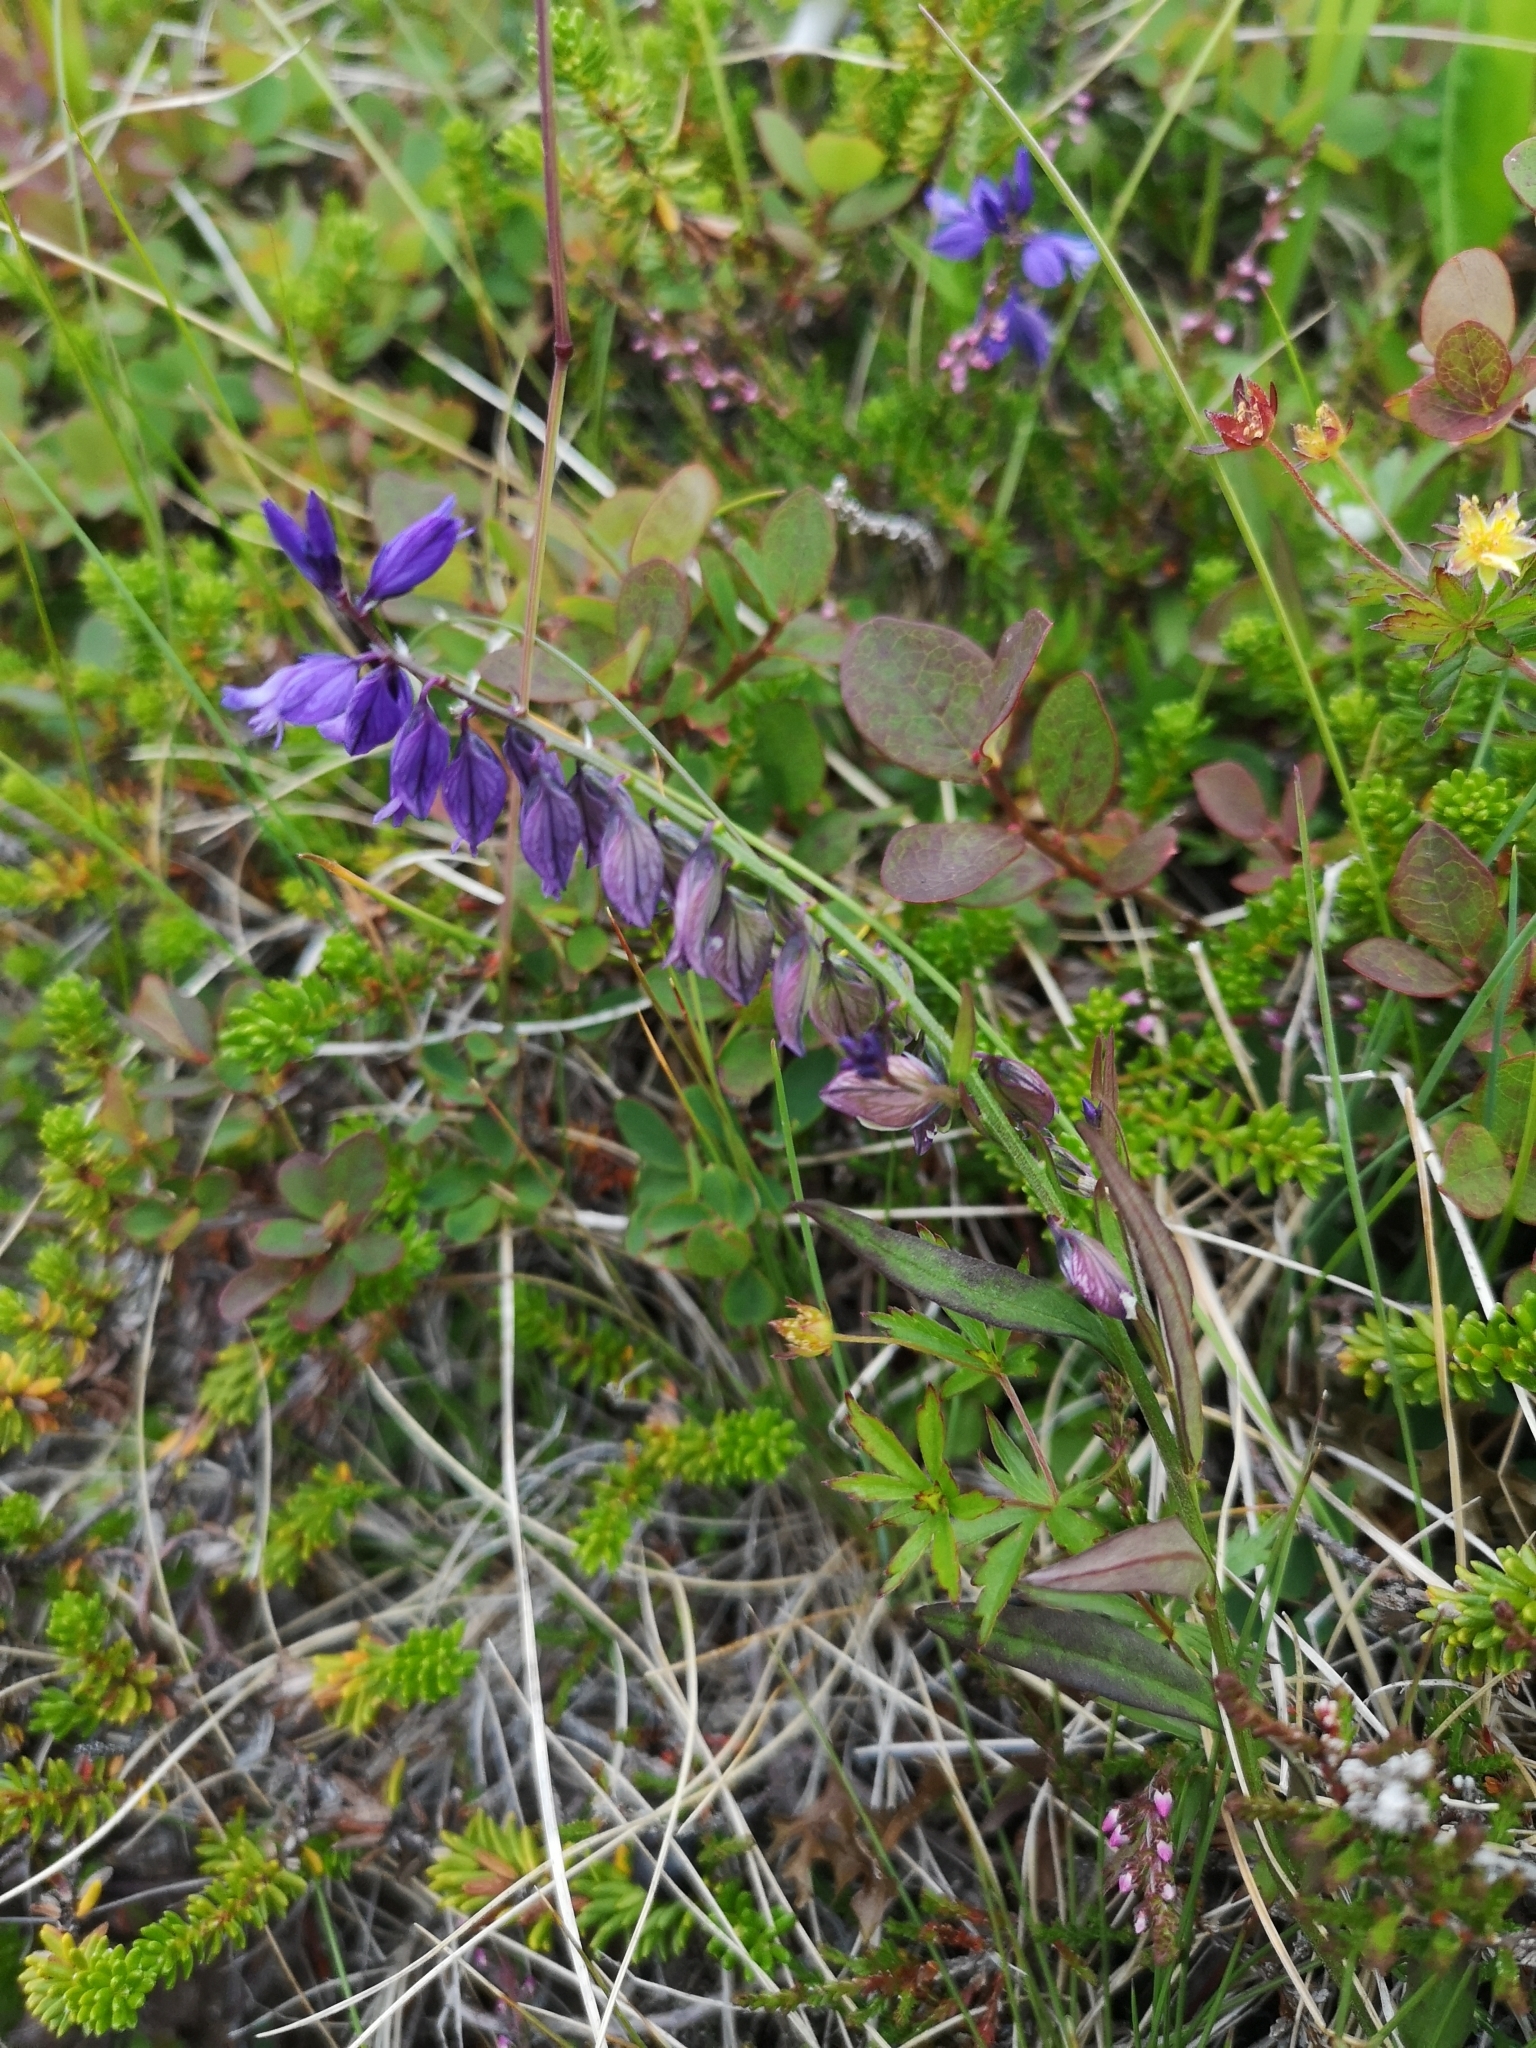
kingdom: Plantae
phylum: Tracheophyta
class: Magnoliopsida
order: Fabales
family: Polygalaceae
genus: Polygala
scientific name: Polygala vulgaris
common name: Common milkwort
